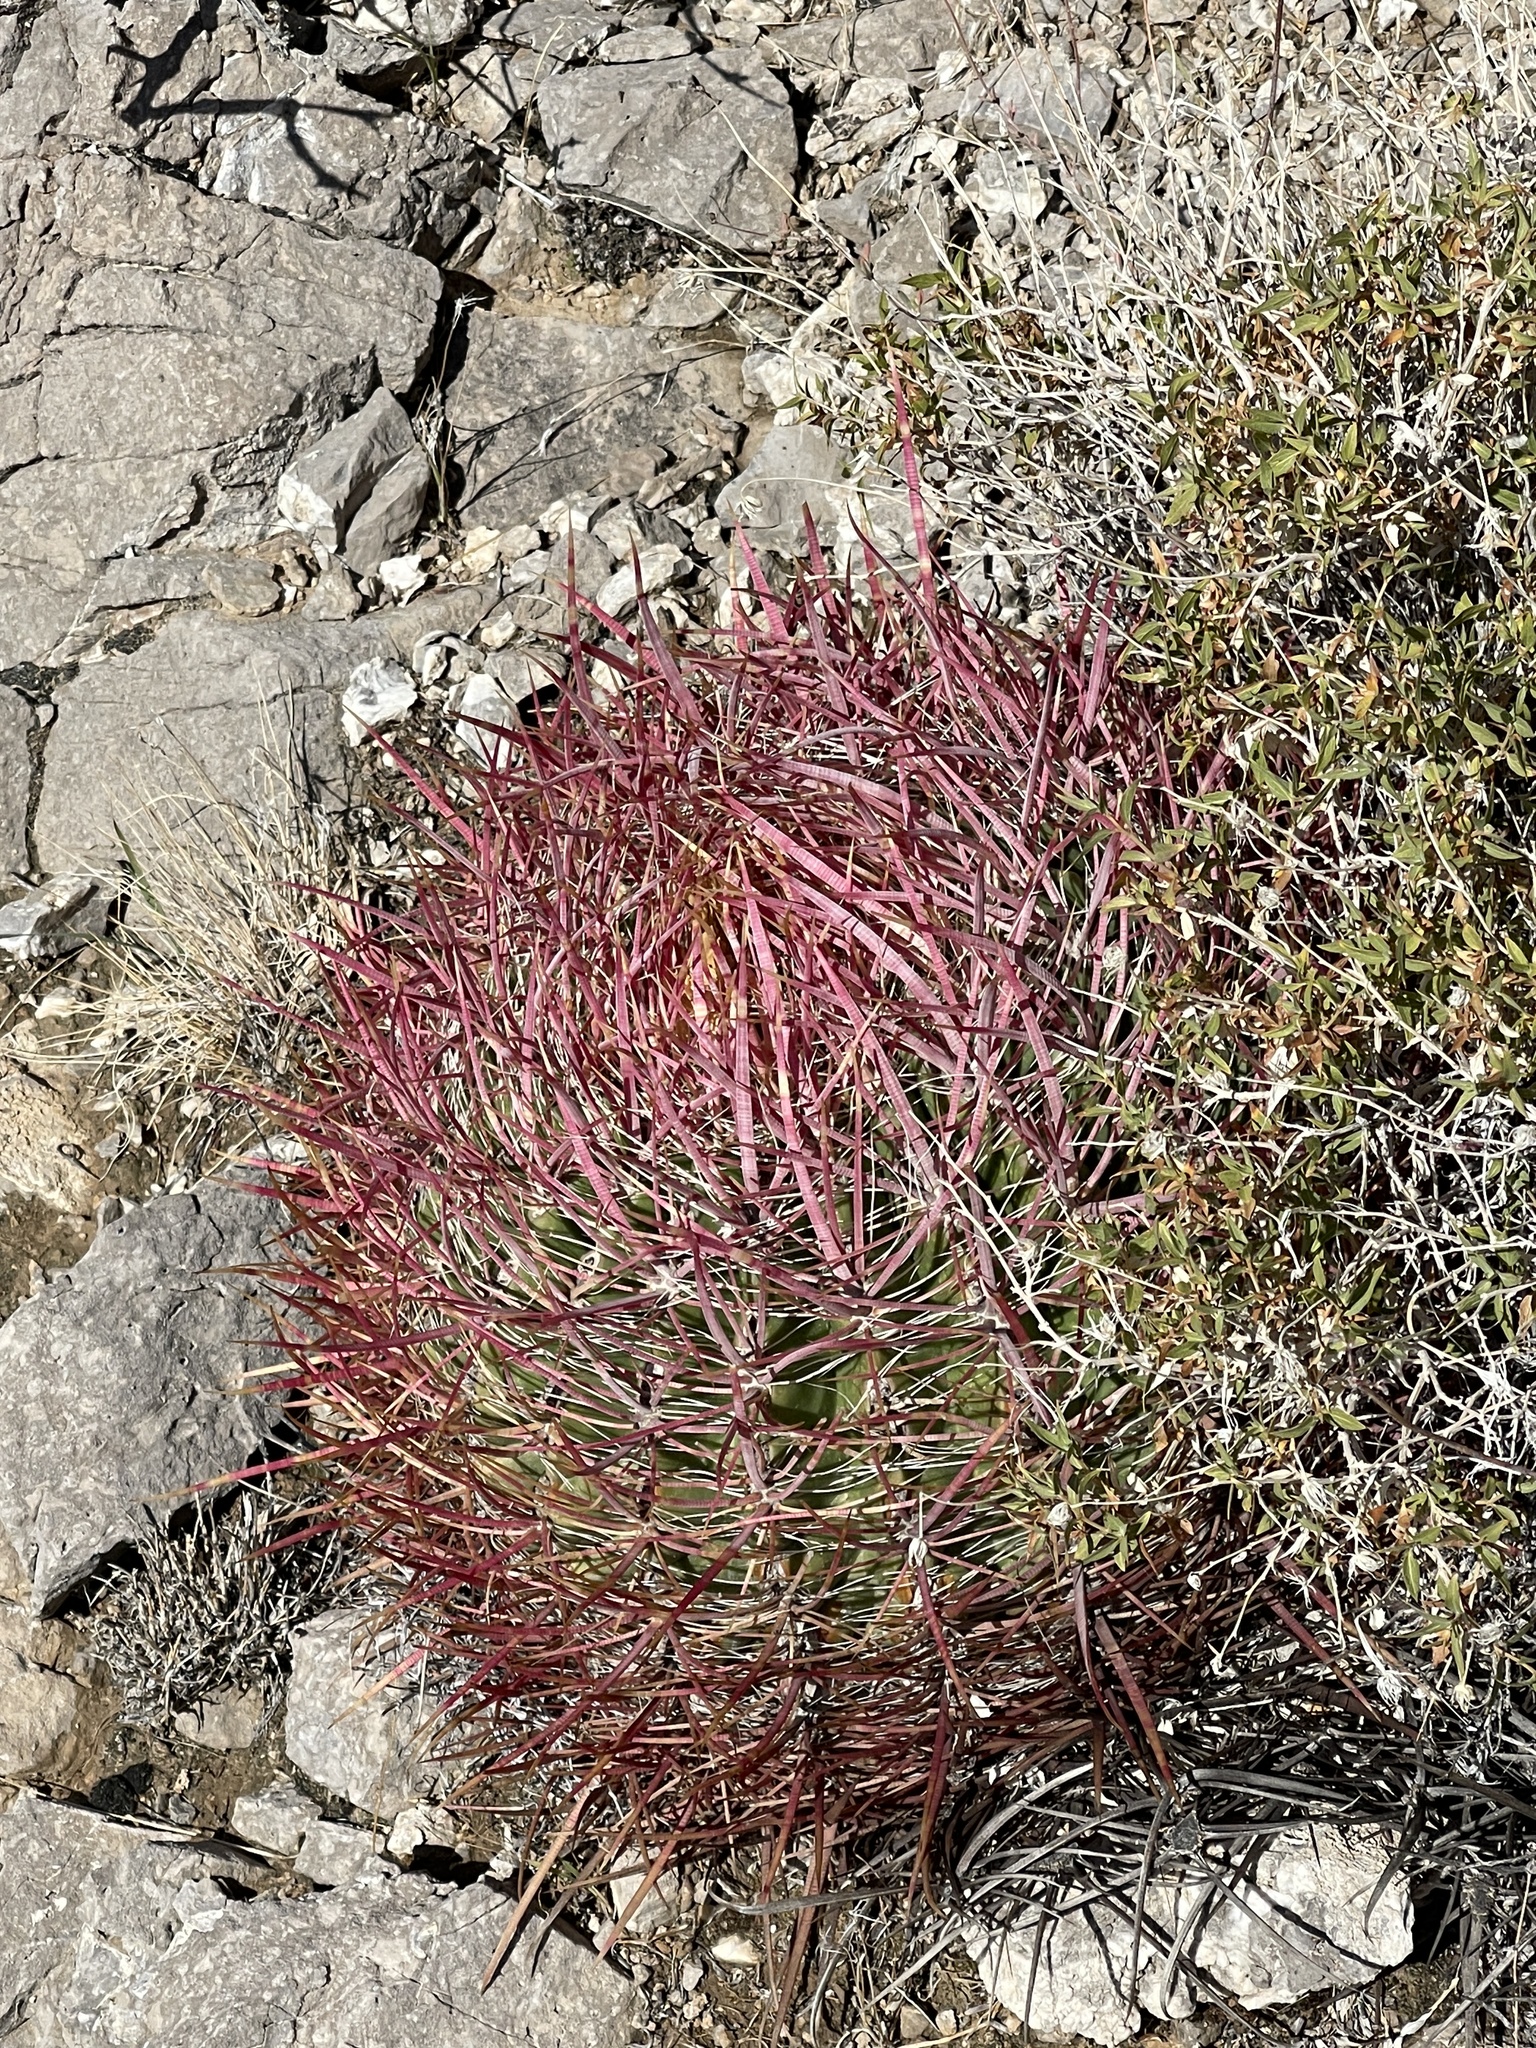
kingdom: Plantae
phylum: Tracheophyta
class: Magnoliopsida
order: Caryophyllales
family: Cactaceae
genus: Ferocactus
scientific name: Ferocactus cylindraceus
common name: California barrel cactus
